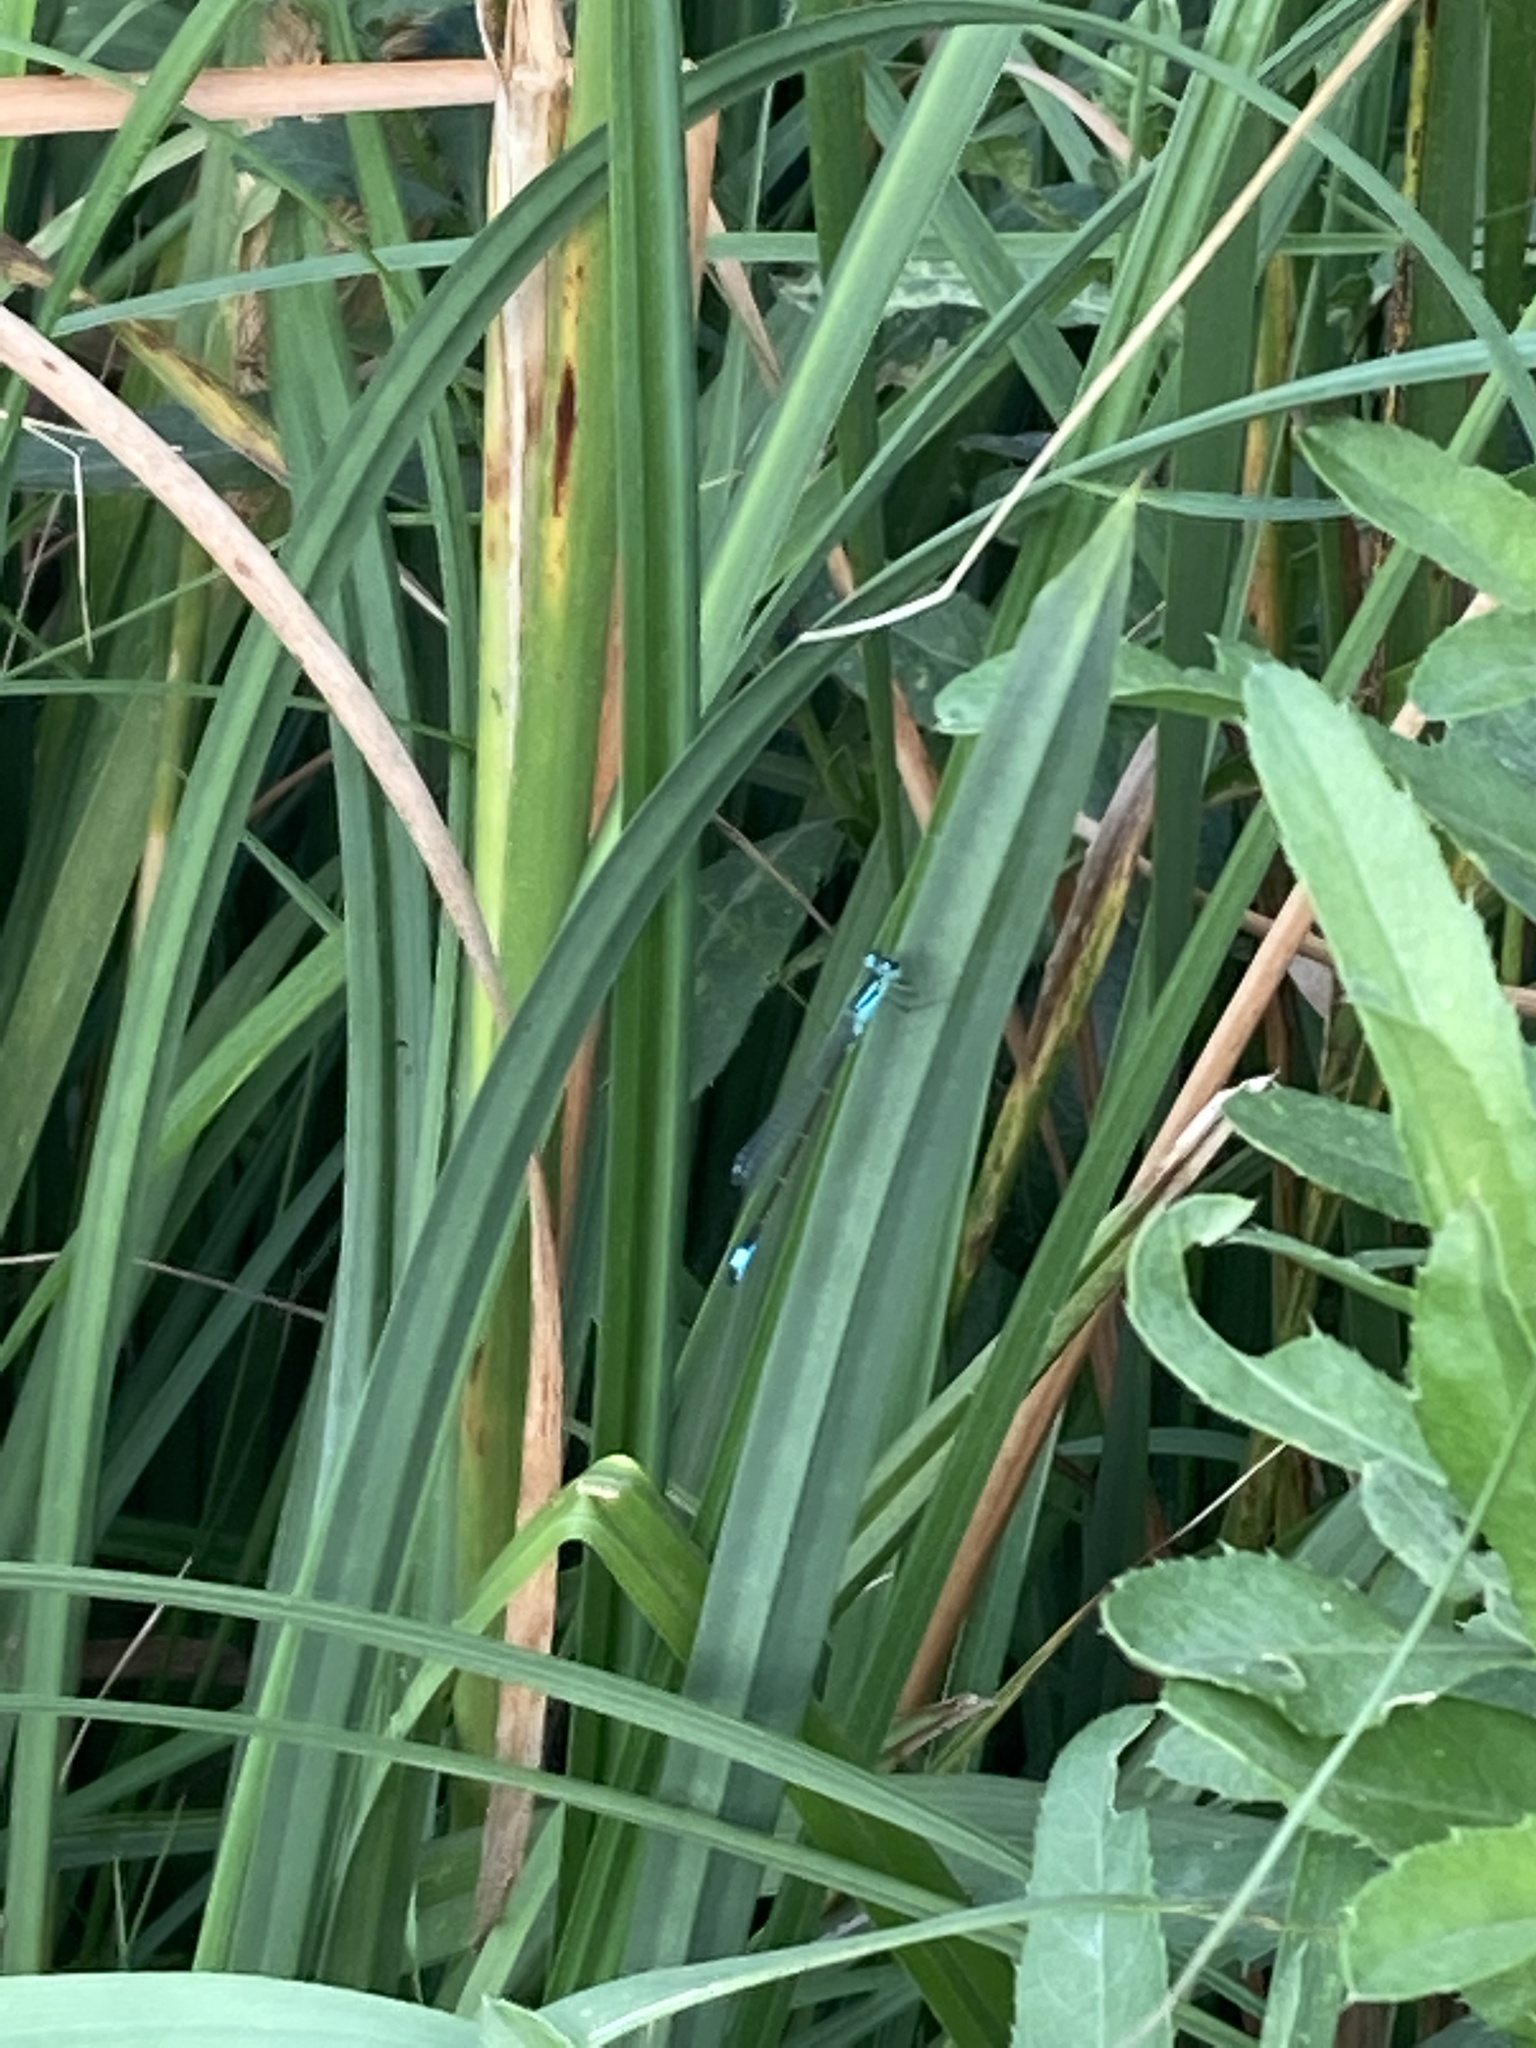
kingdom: Animalia
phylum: Arthropoda
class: Insecta
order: Odonata
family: Coenagrionidae
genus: Ischnura
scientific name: Ischnura elegans
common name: Blue-tailed damselfly
